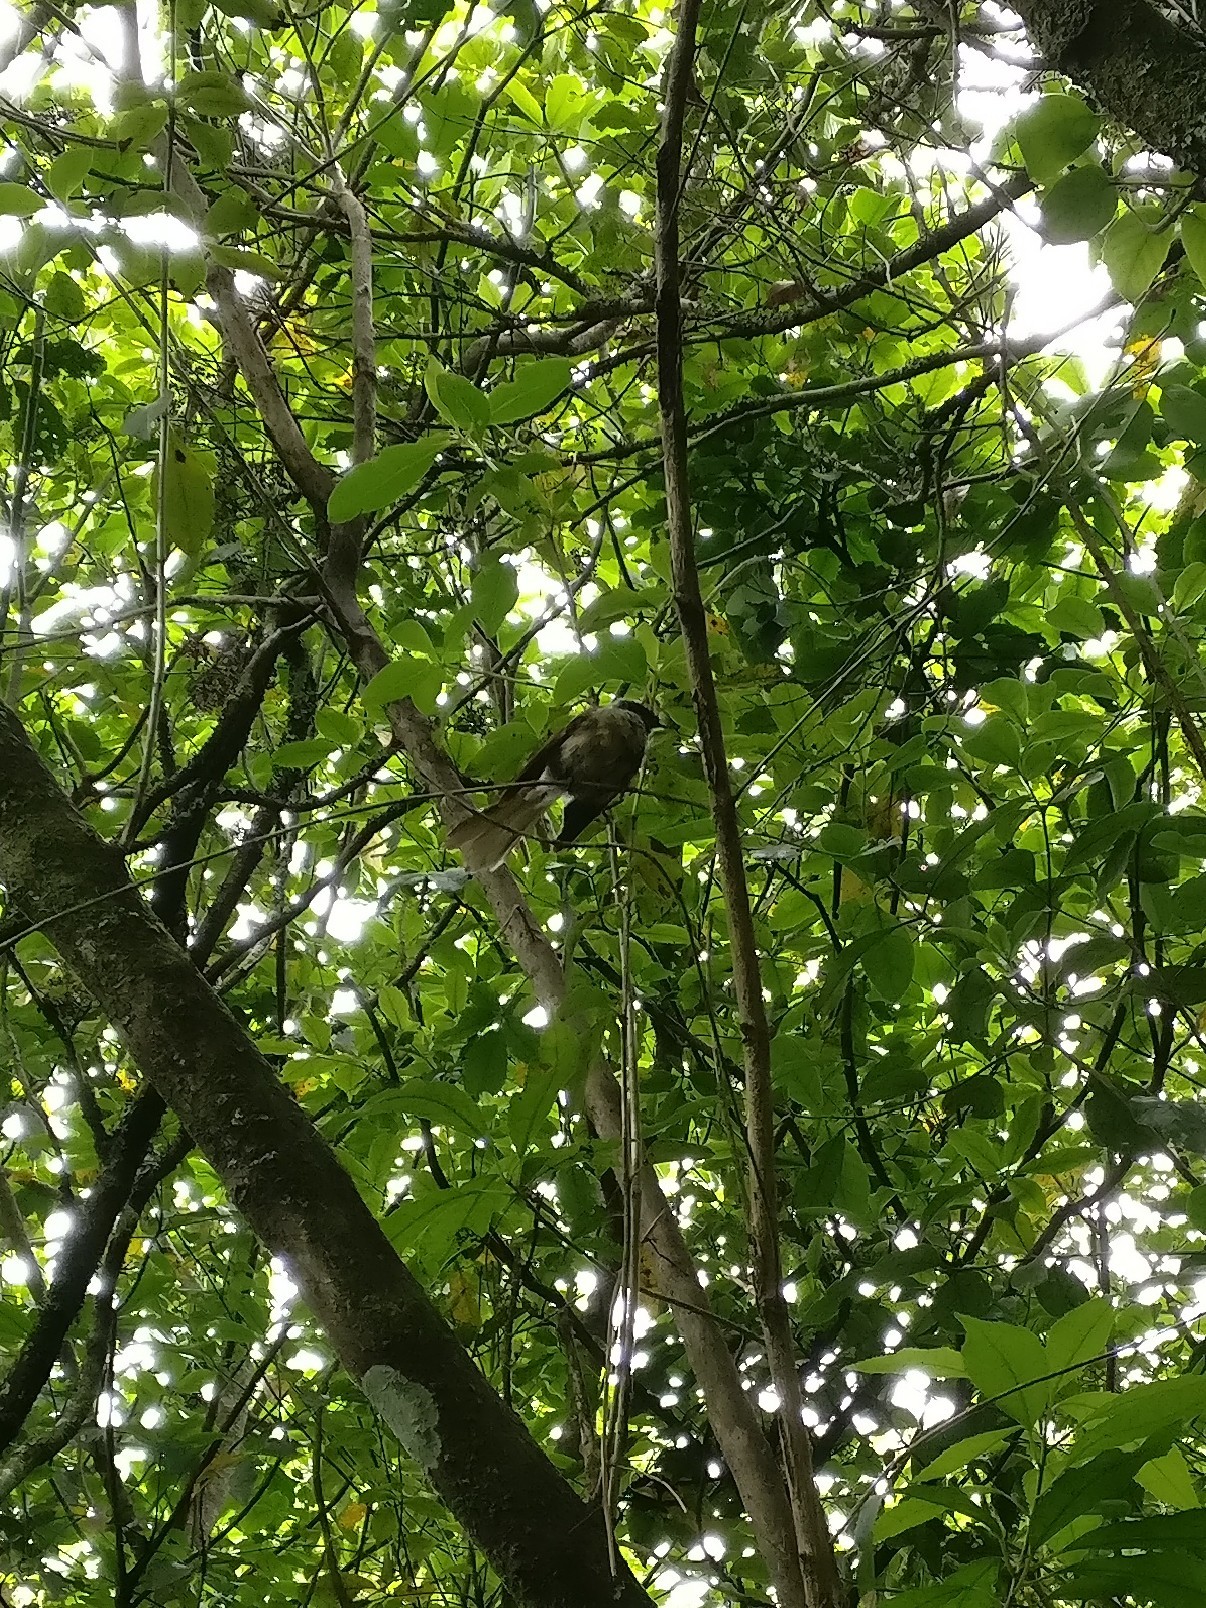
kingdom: Animalia
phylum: Chordata
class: Aves
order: Passeriformes
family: Rhipiduridae
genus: Rhipidura
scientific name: Rhipidura fuliginosa
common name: New zealand fantail
